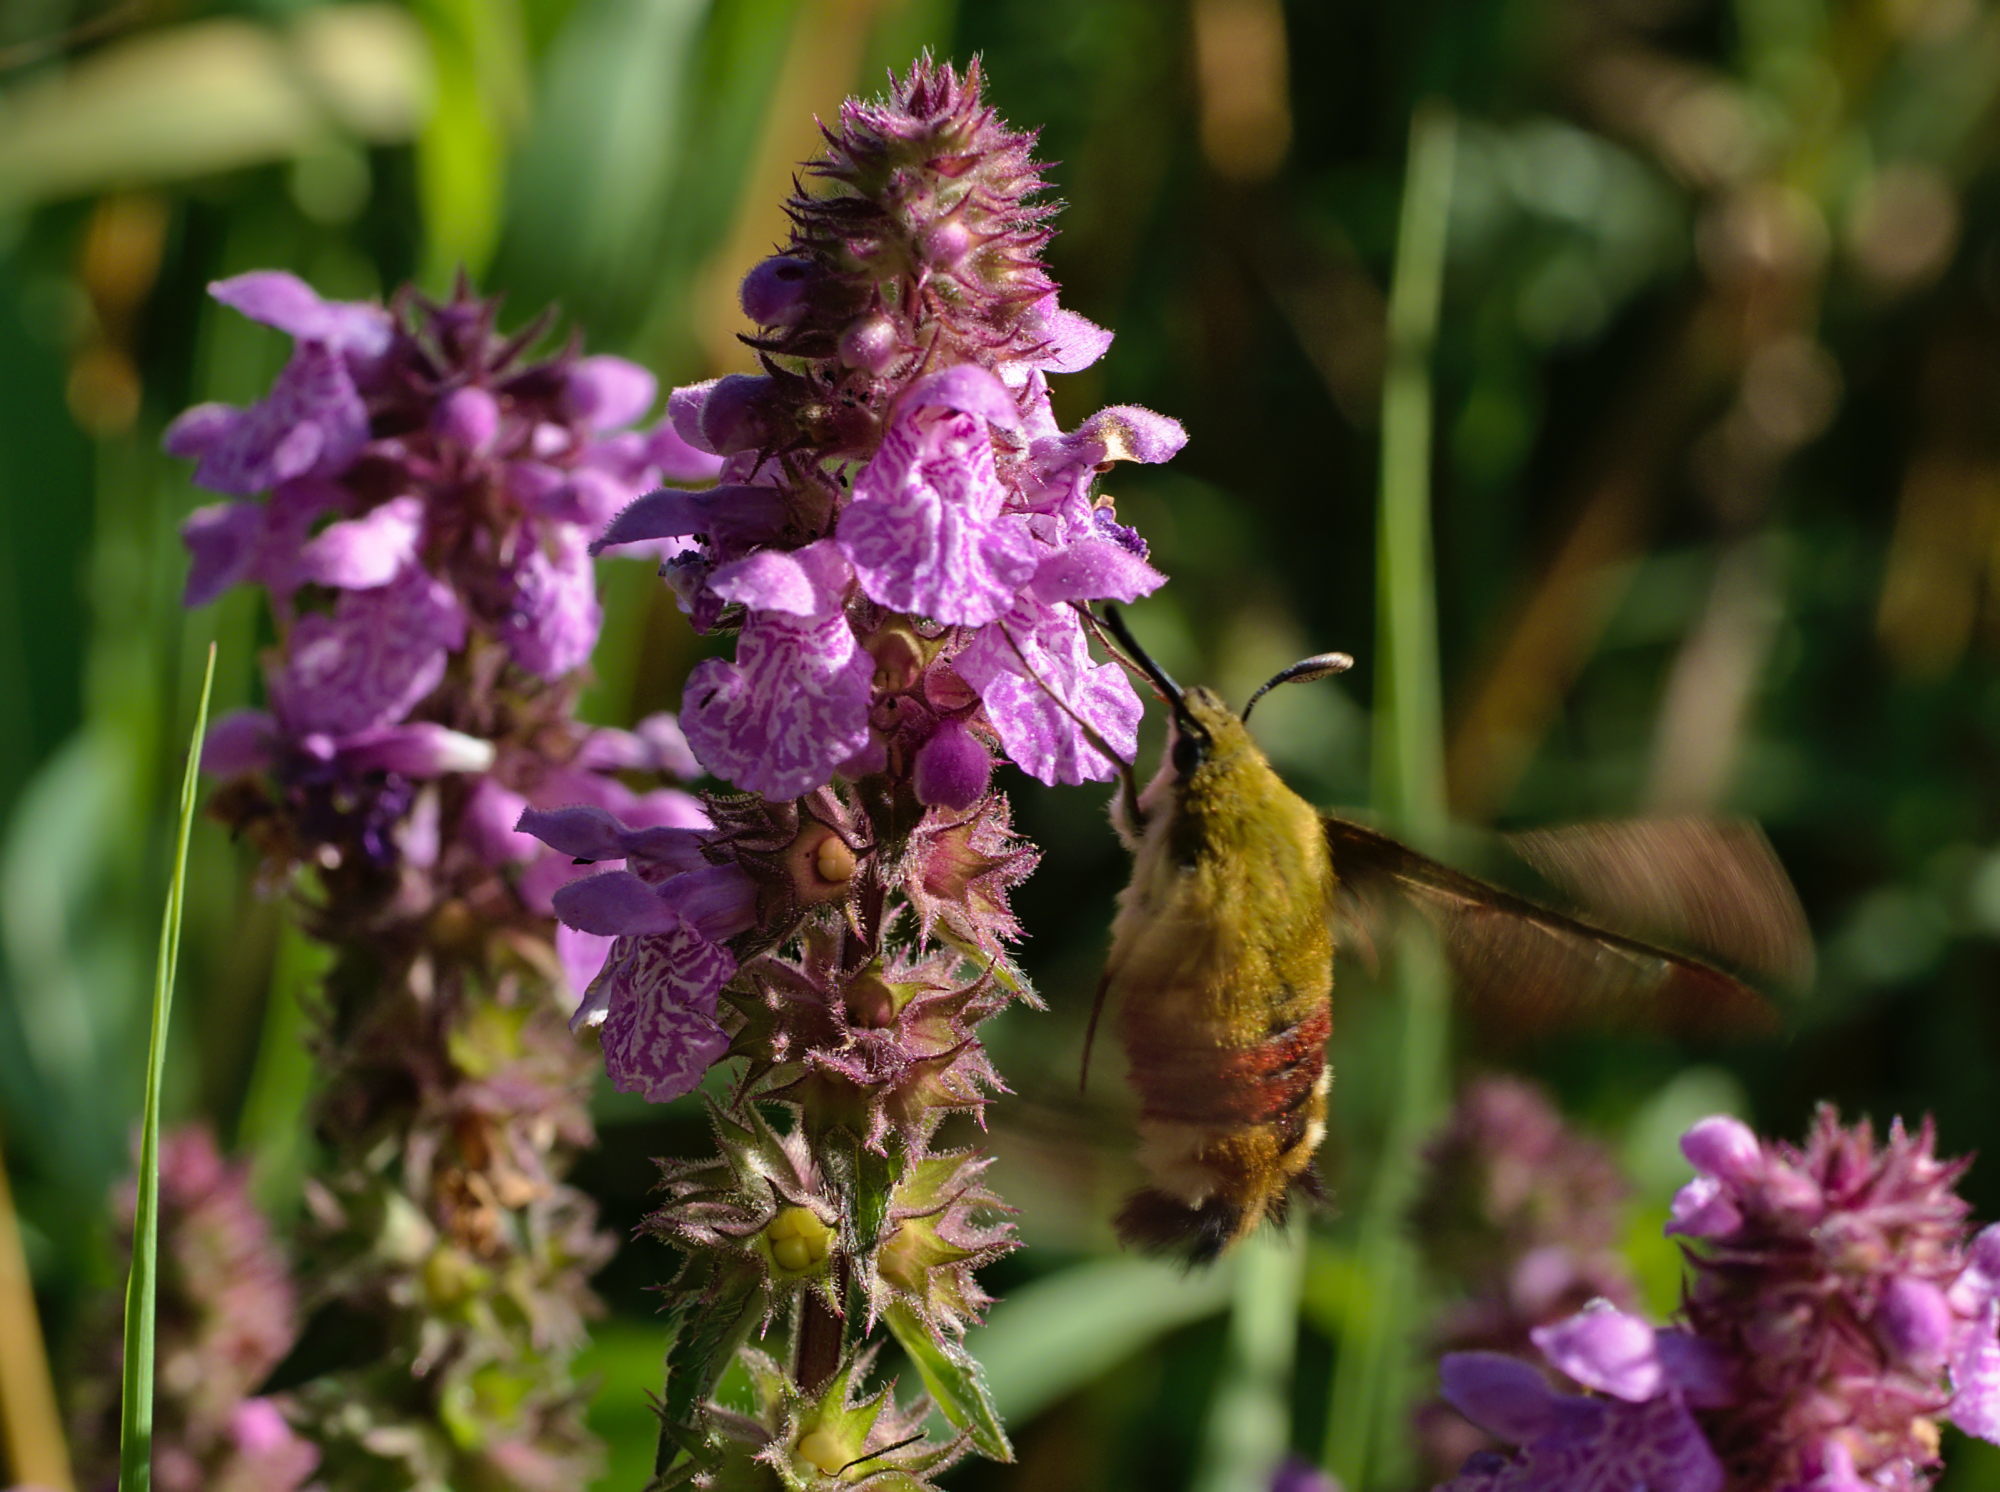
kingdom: Animalia
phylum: Arthropoda
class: Insecta
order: Lepidoptera
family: Sphingidae
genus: Hemaris
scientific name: Hemaris fuciformis
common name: Broad-bordered bee hawk-moth
